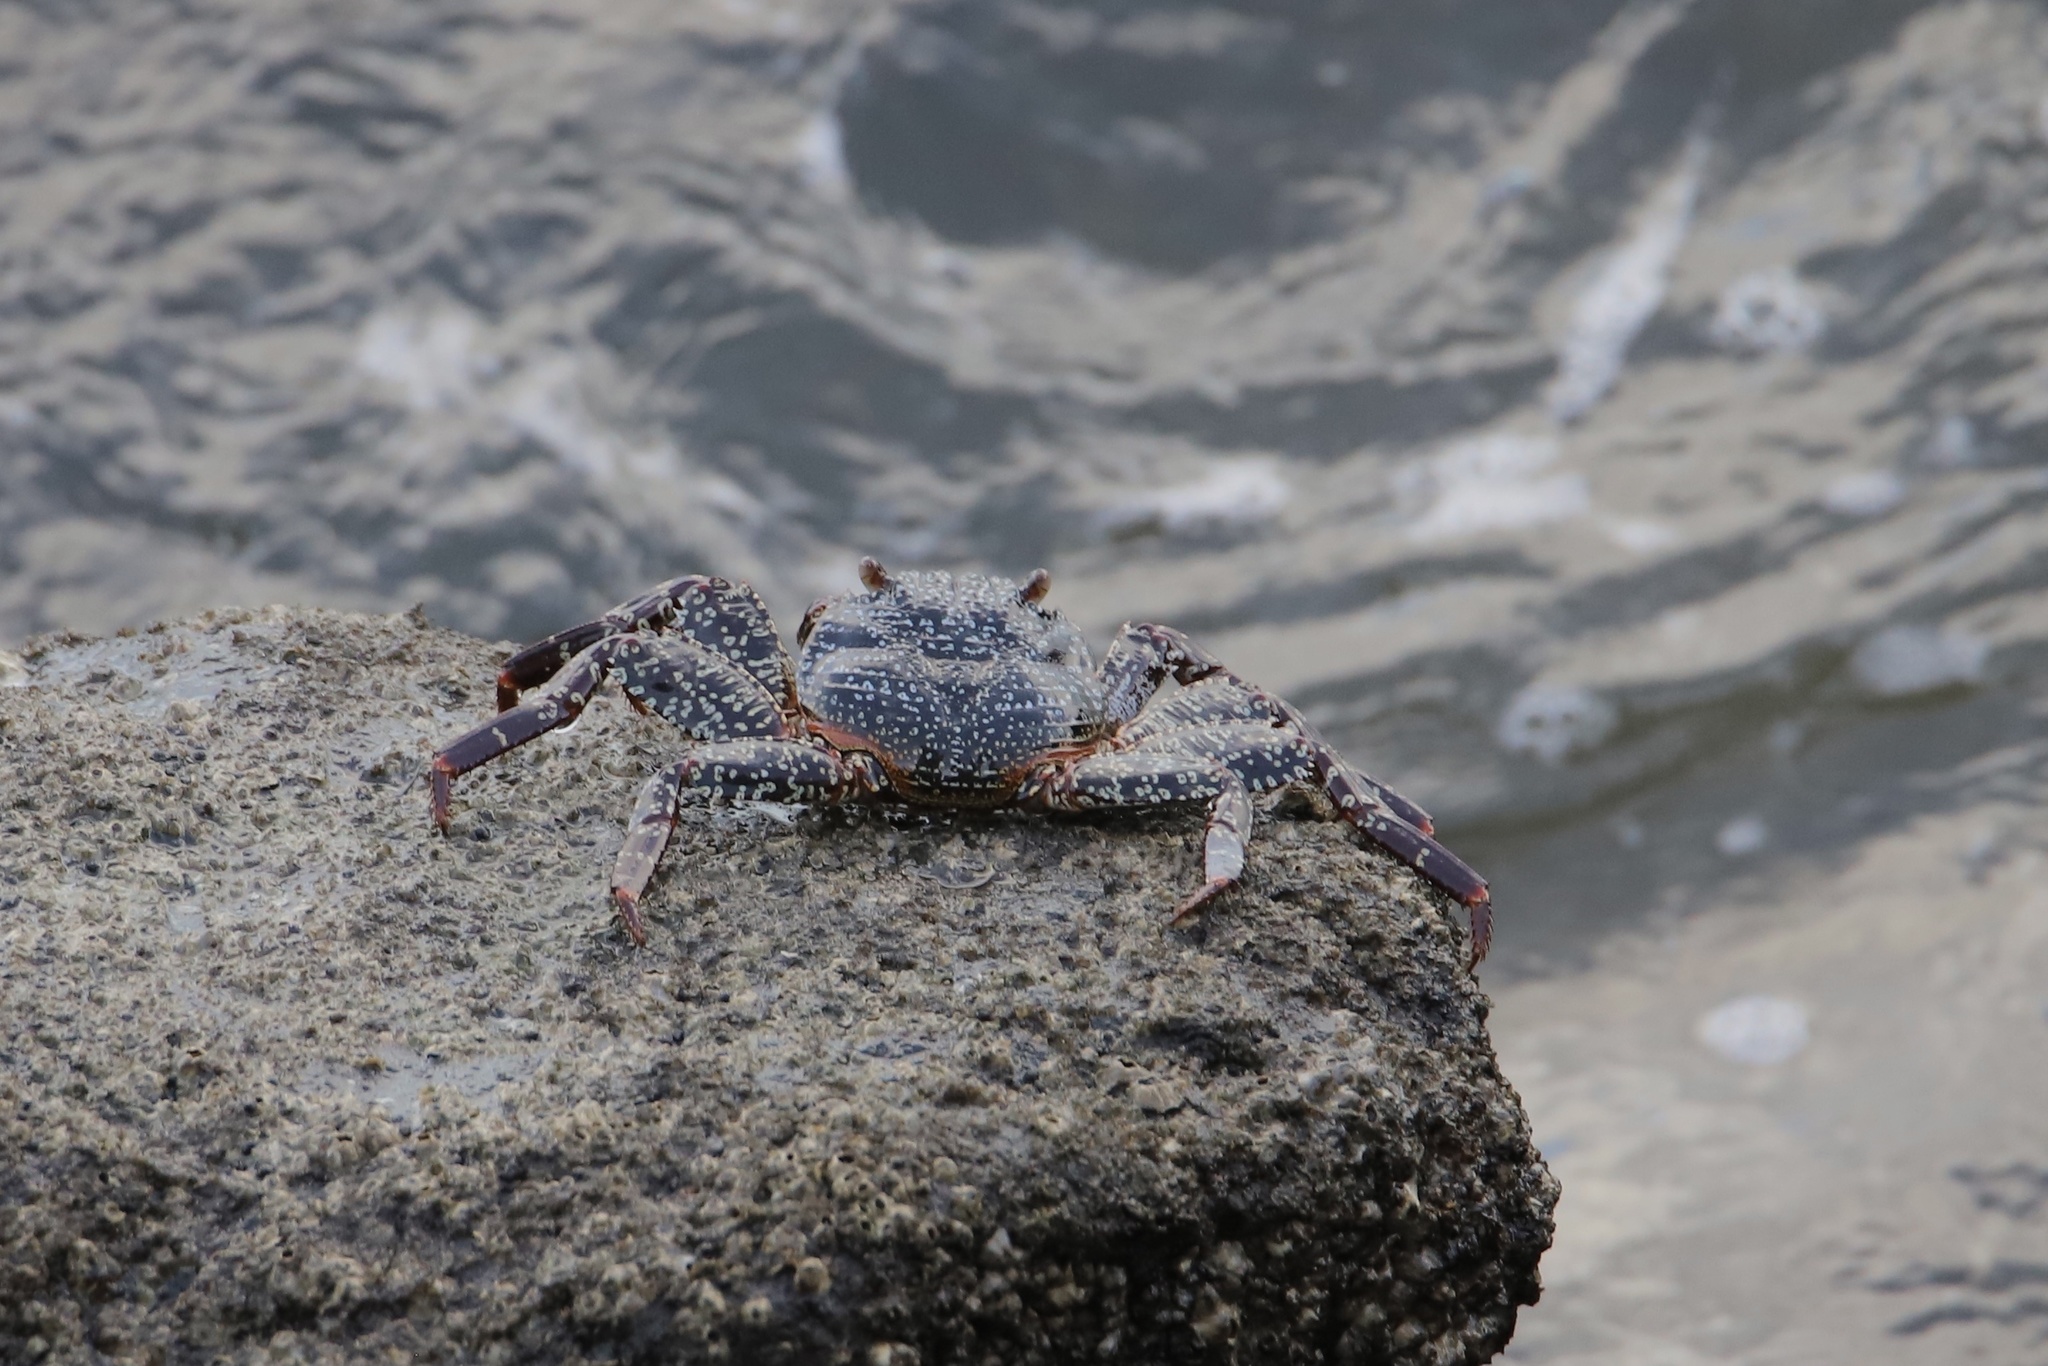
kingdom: Animalia
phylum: Arthropoda
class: Malacostraca
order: Decapoda
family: Grapsidae
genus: Grapsus
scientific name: Grapsus grapsus
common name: Sally lightfoot
